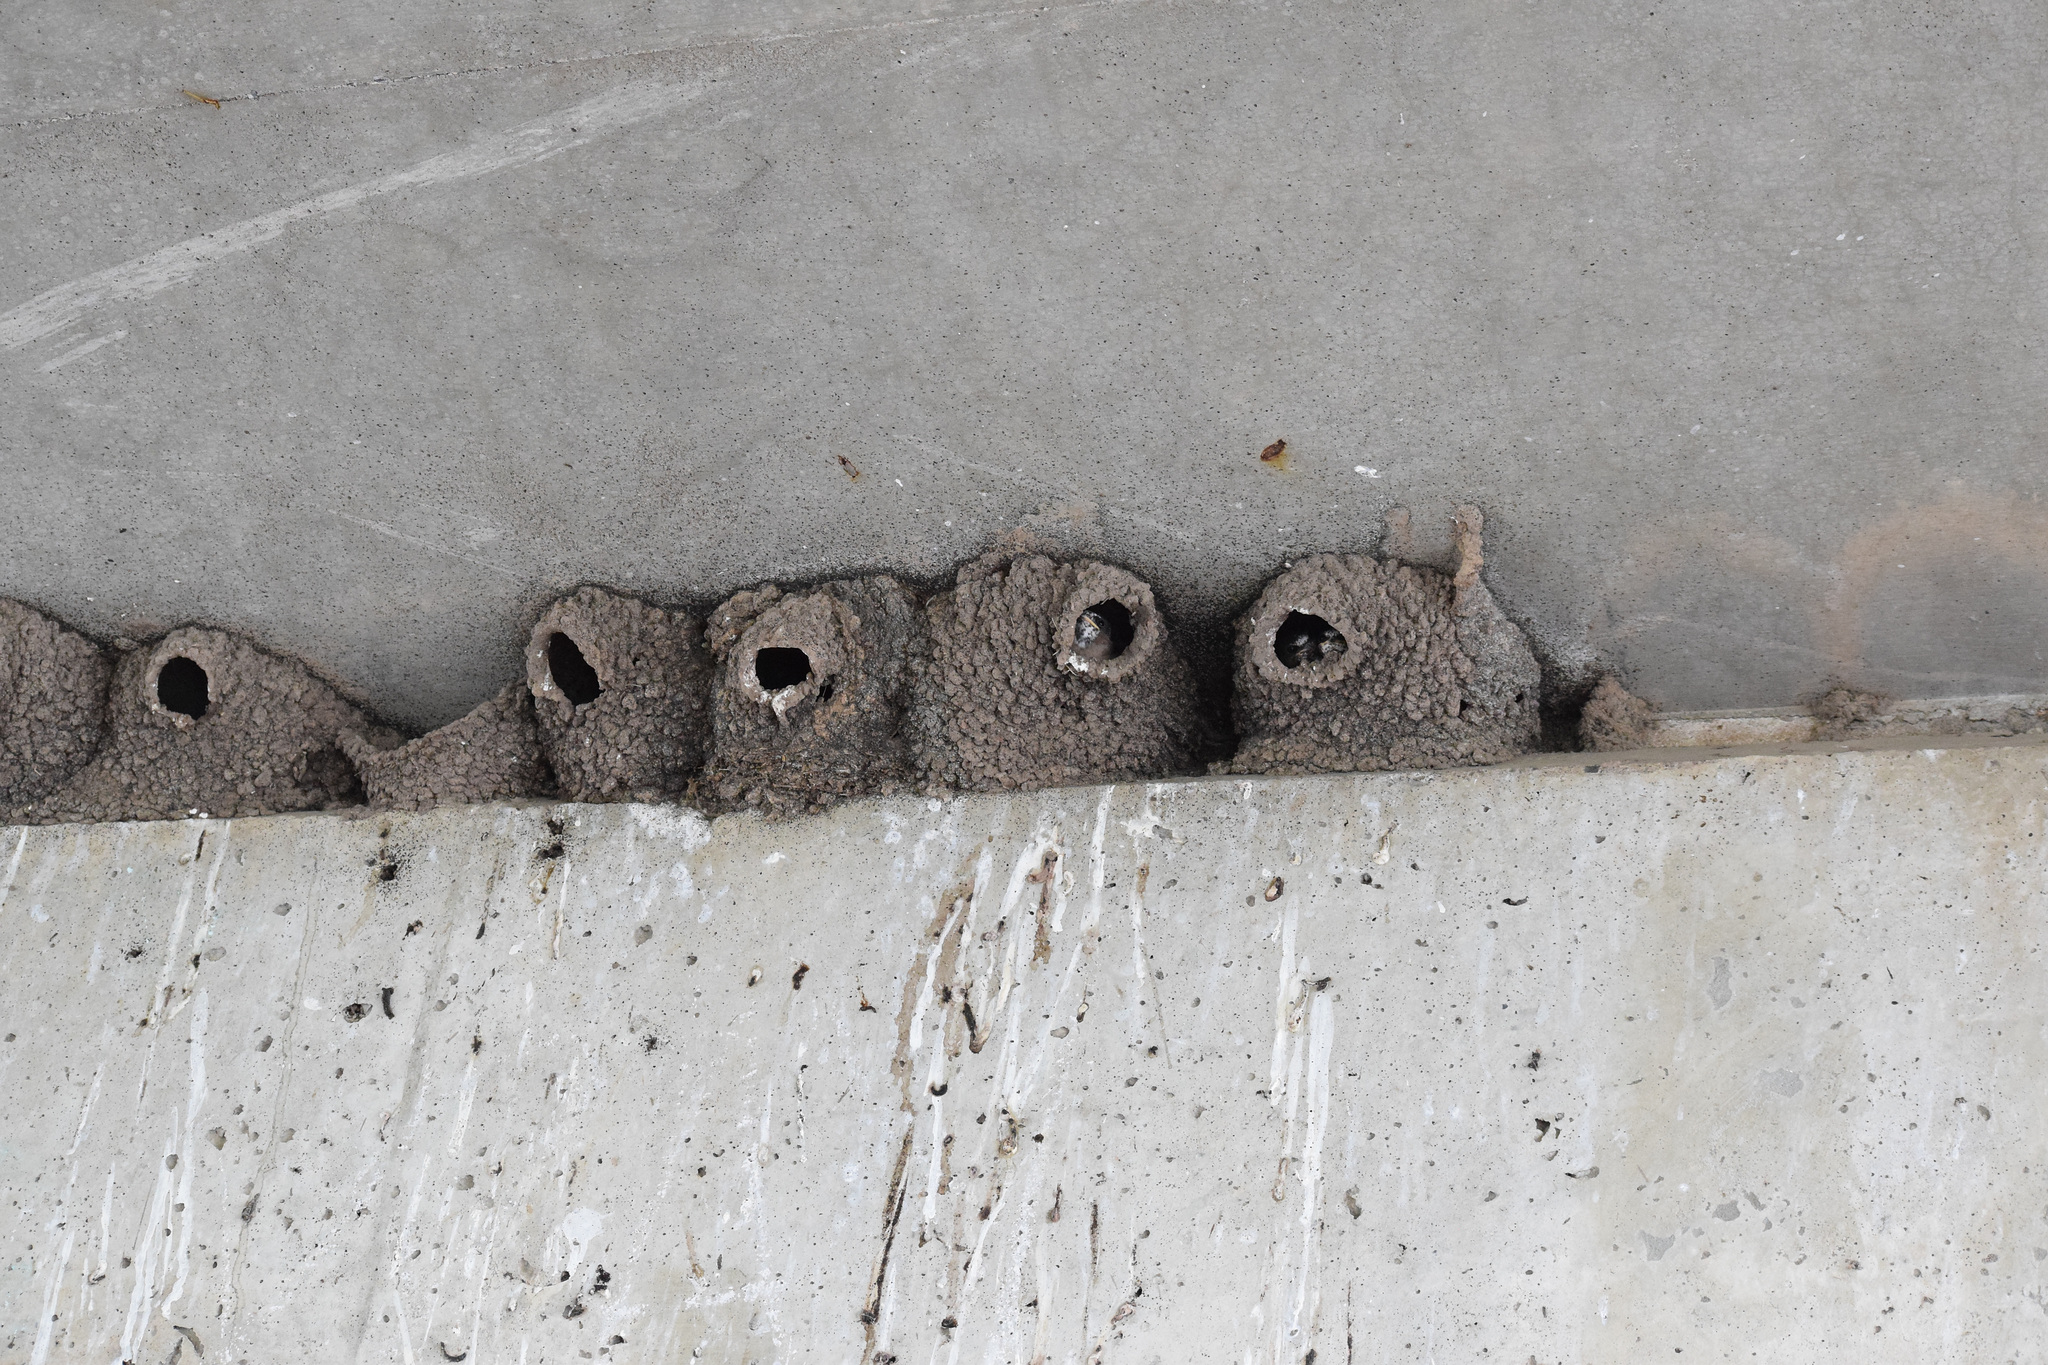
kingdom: Animalia
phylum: Chordata
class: Aves
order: Passeriformes
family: Hirundinidae
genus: Petrochelidon
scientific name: Petrochelidon pyrrhonota
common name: American cliff swallow
